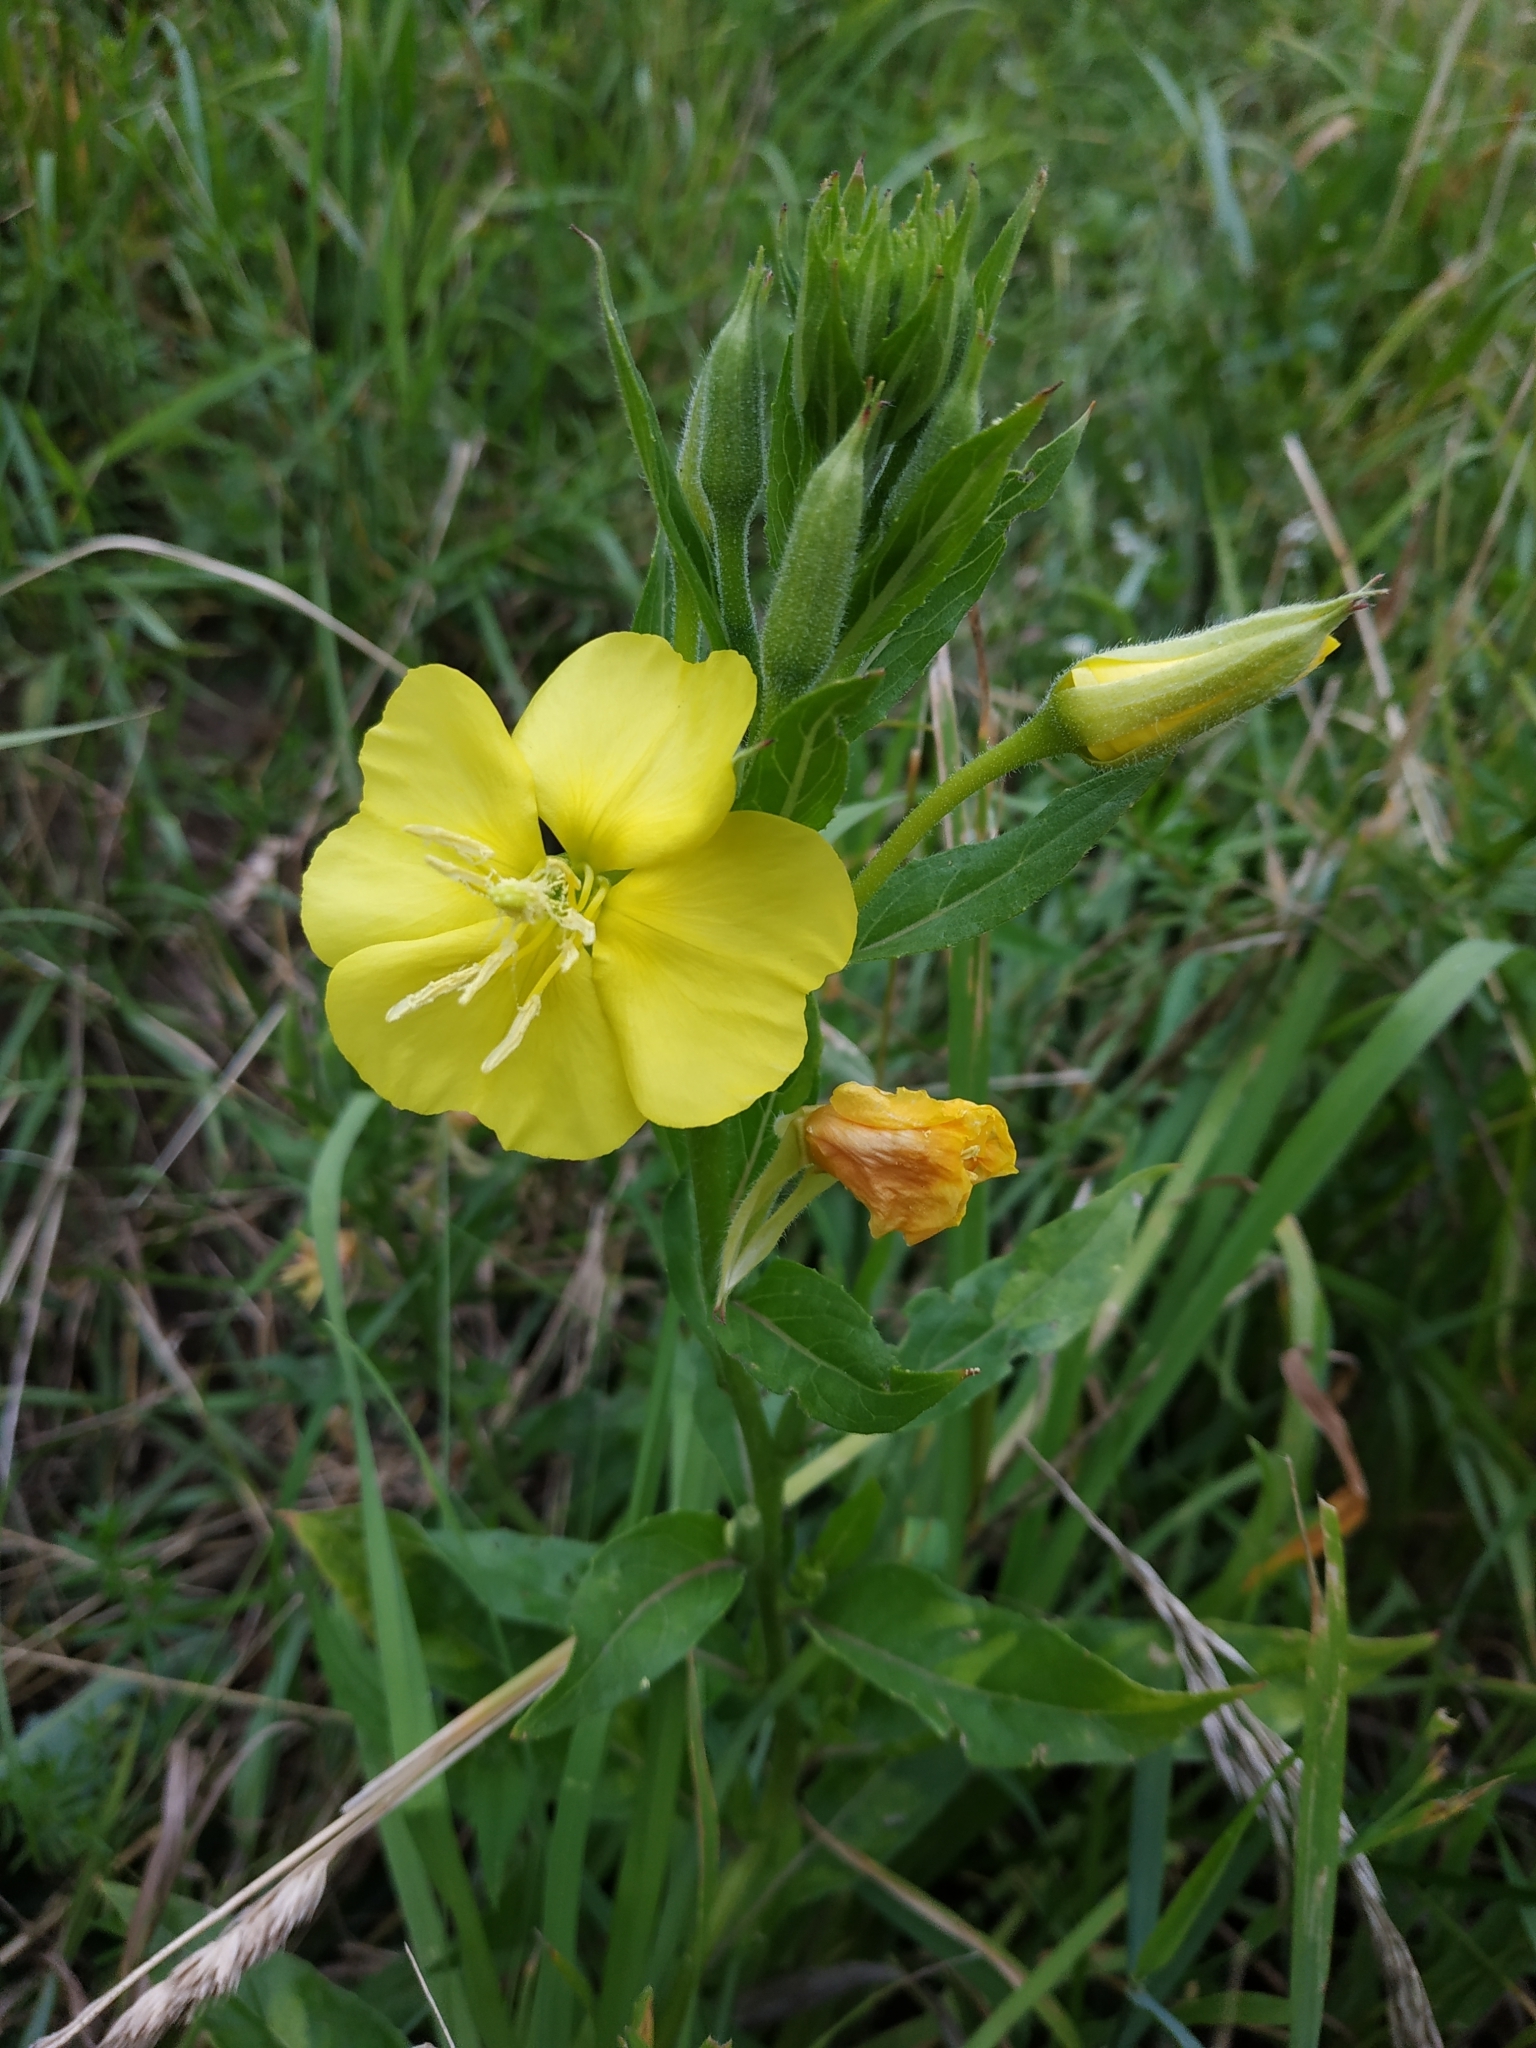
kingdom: Plantae
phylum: Tracheophyta
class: Magnoliopsida
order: Myrtales
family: Onagraceae
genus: Oenothera
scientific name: Oenothera biennis
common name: Common evening-primrose
